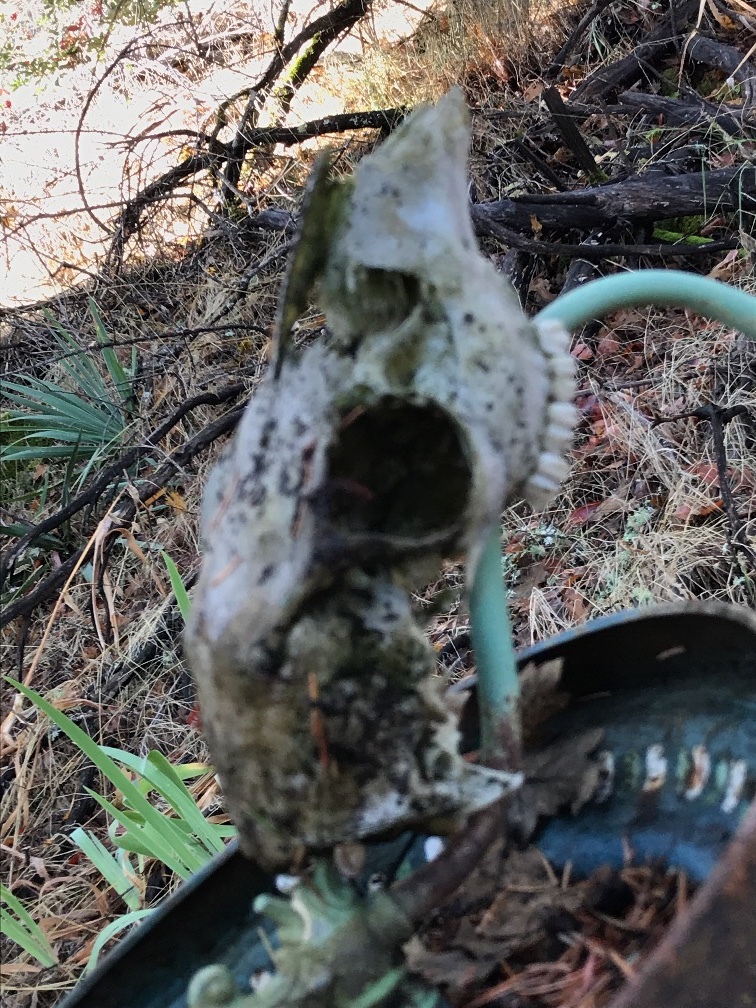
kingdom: Animalia
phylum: Chordata
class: Mammalia
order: Artiodactyla
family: Cervidae
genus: Odocoileus
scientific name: Odocoileus hemionus
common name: Mule deer
